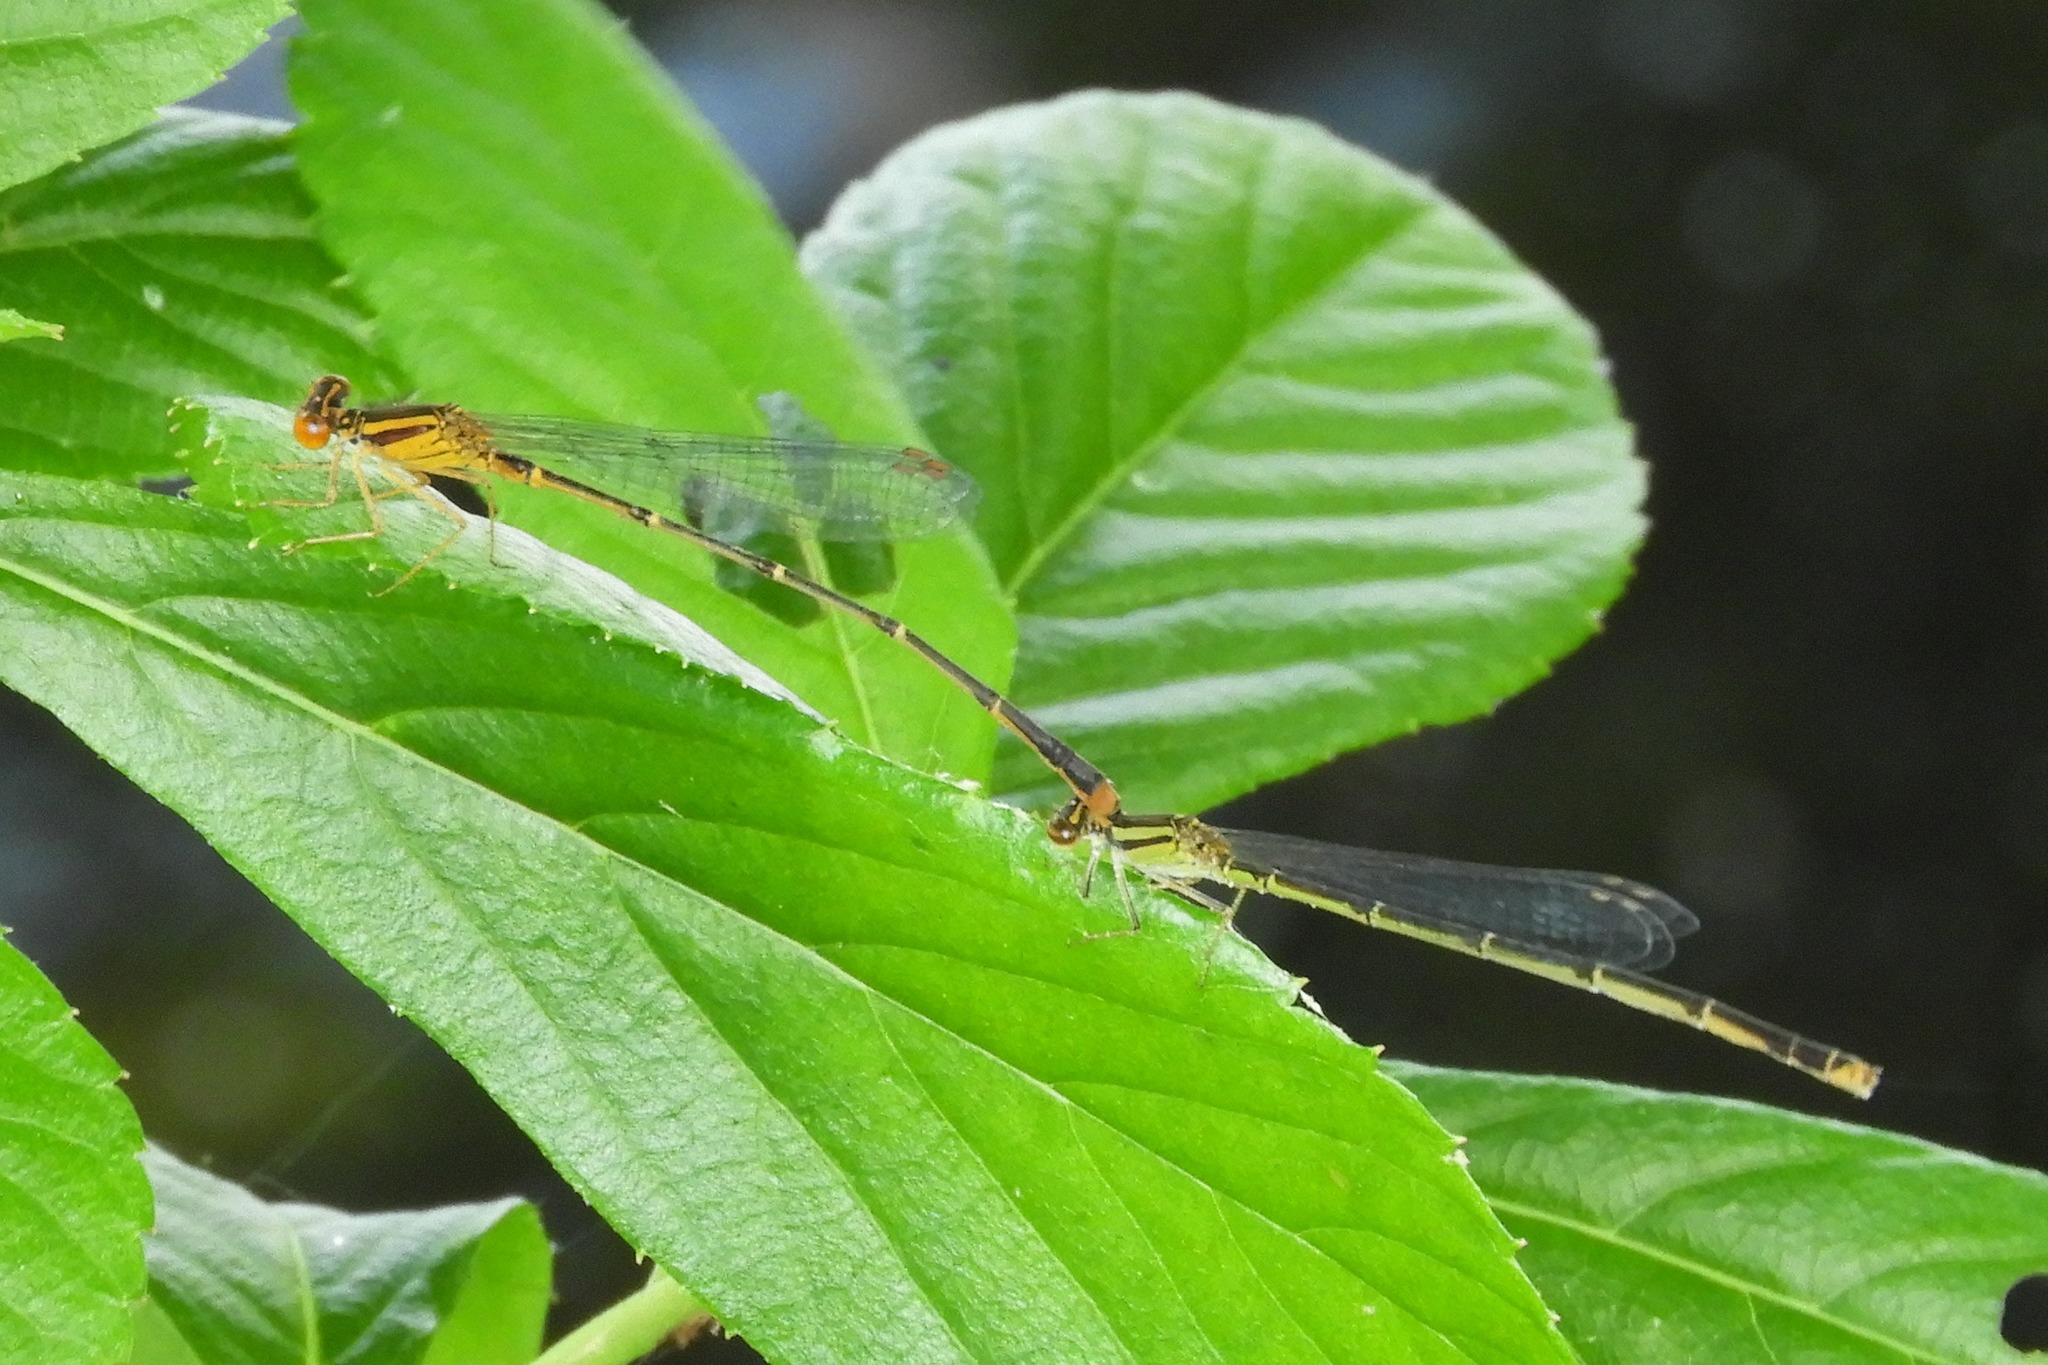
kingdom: Animalia
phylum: Arthropoda
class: Insecta
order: Odonata
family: Coenagrionidae
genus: Enallagma
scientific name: Enallagma signatum
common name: Orange bluet
